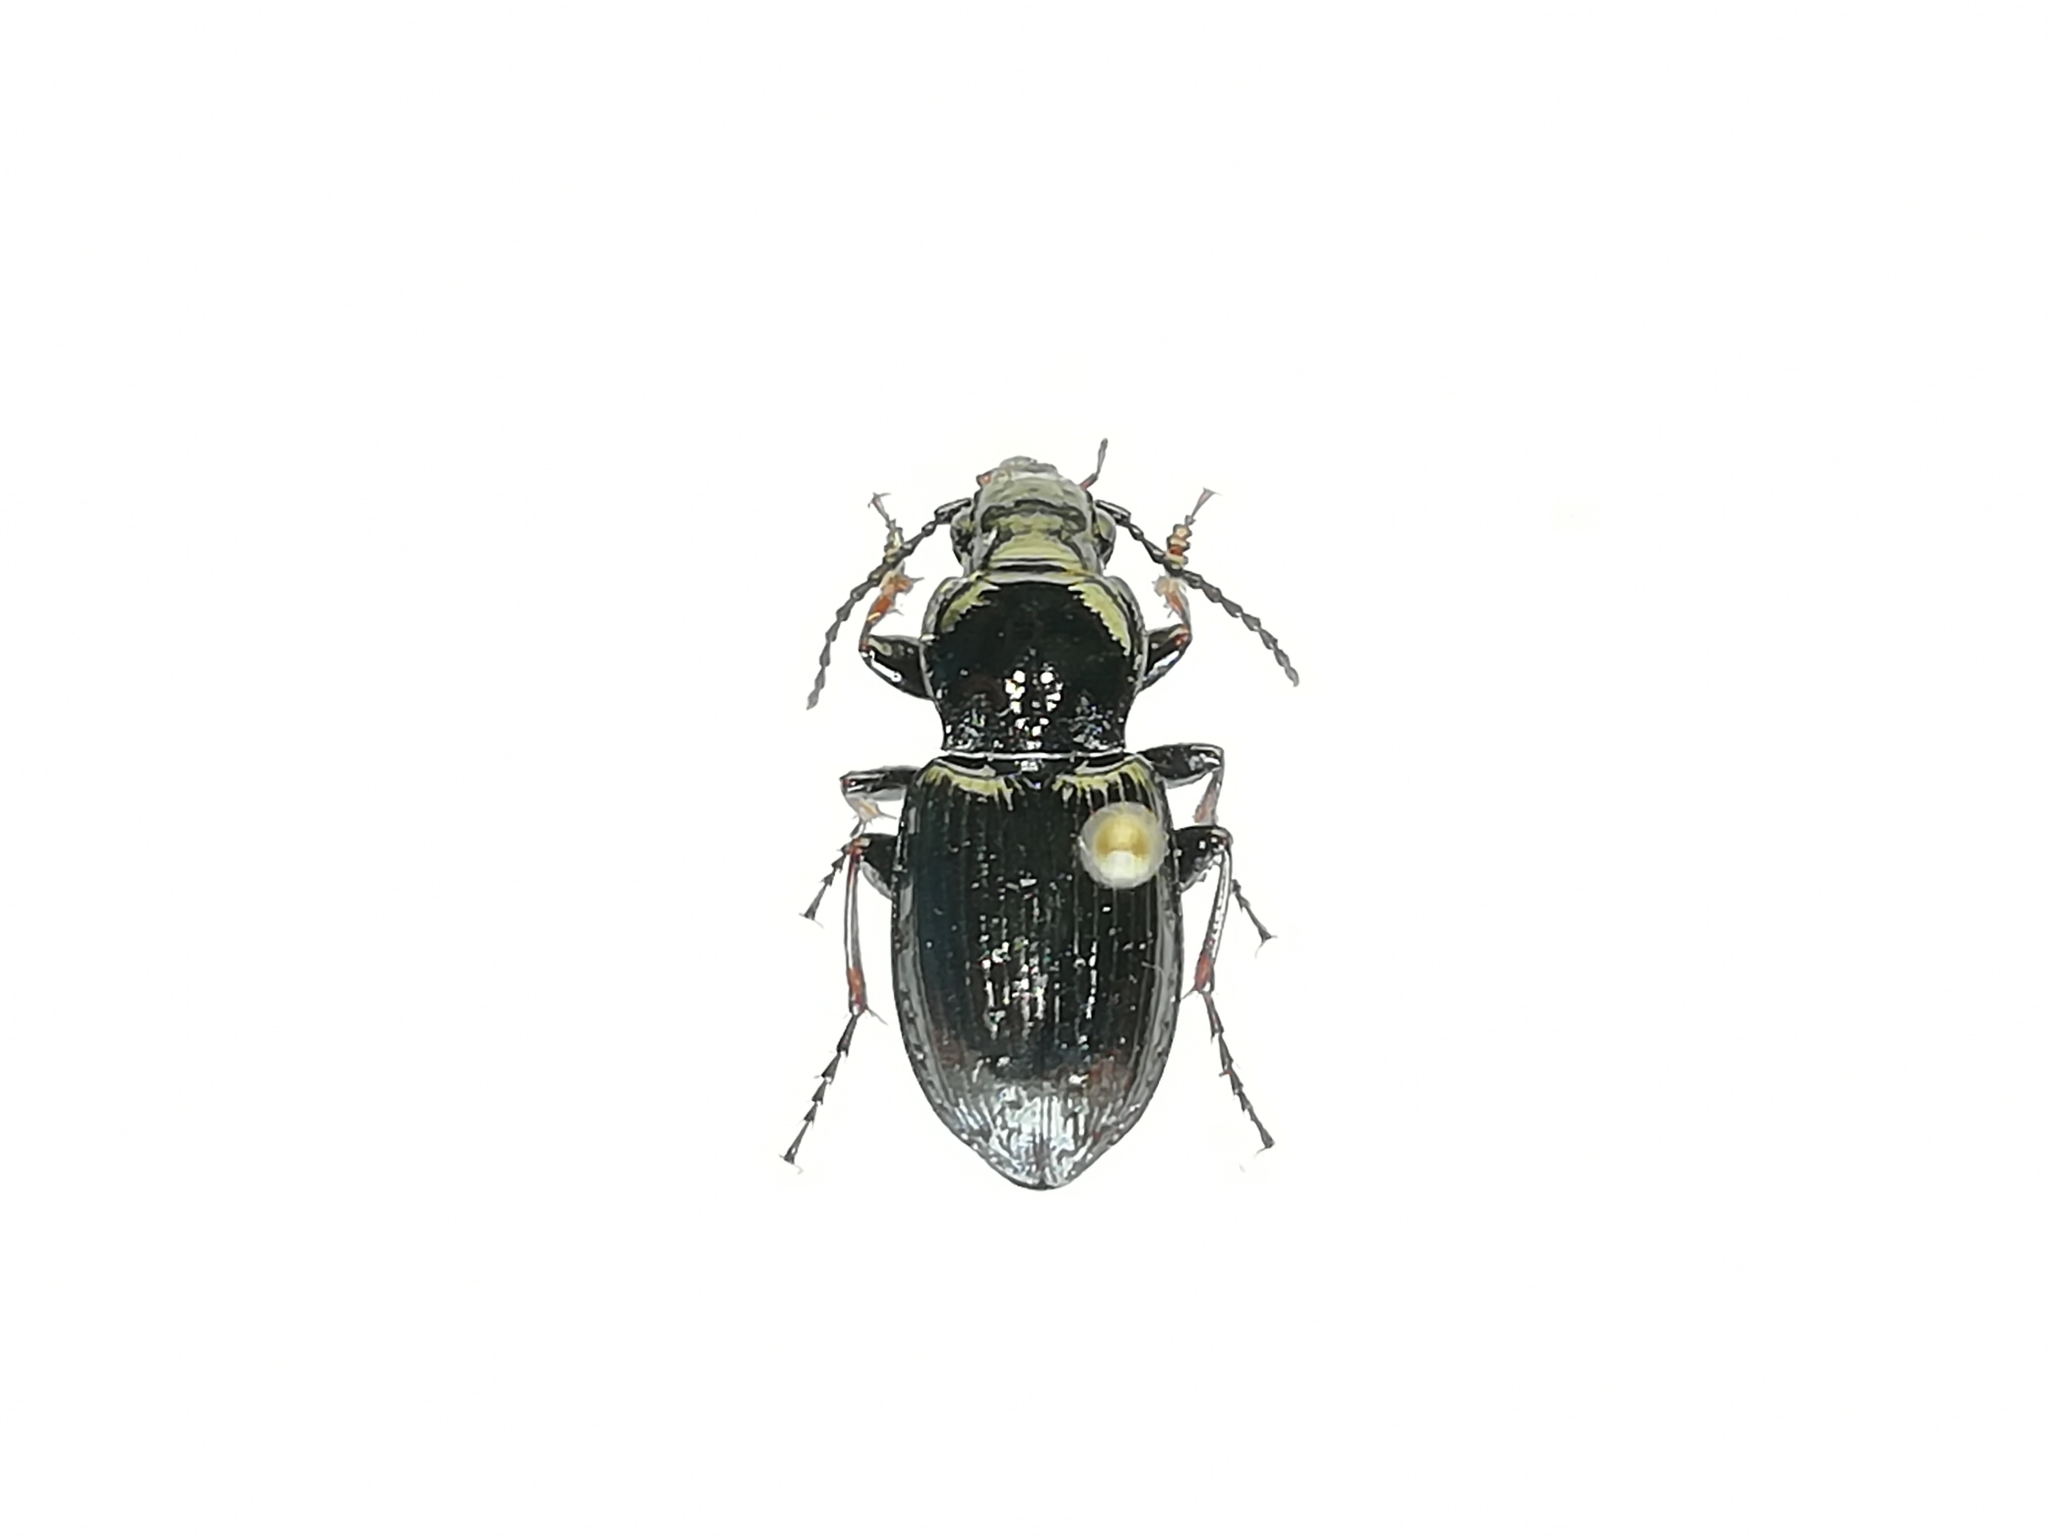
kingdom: Animalia
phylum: Arthropoda
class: Insecta
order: Coleoptera
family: Carabidae
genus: Pterostichus
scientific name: Pterostichus oblongopunctatus
